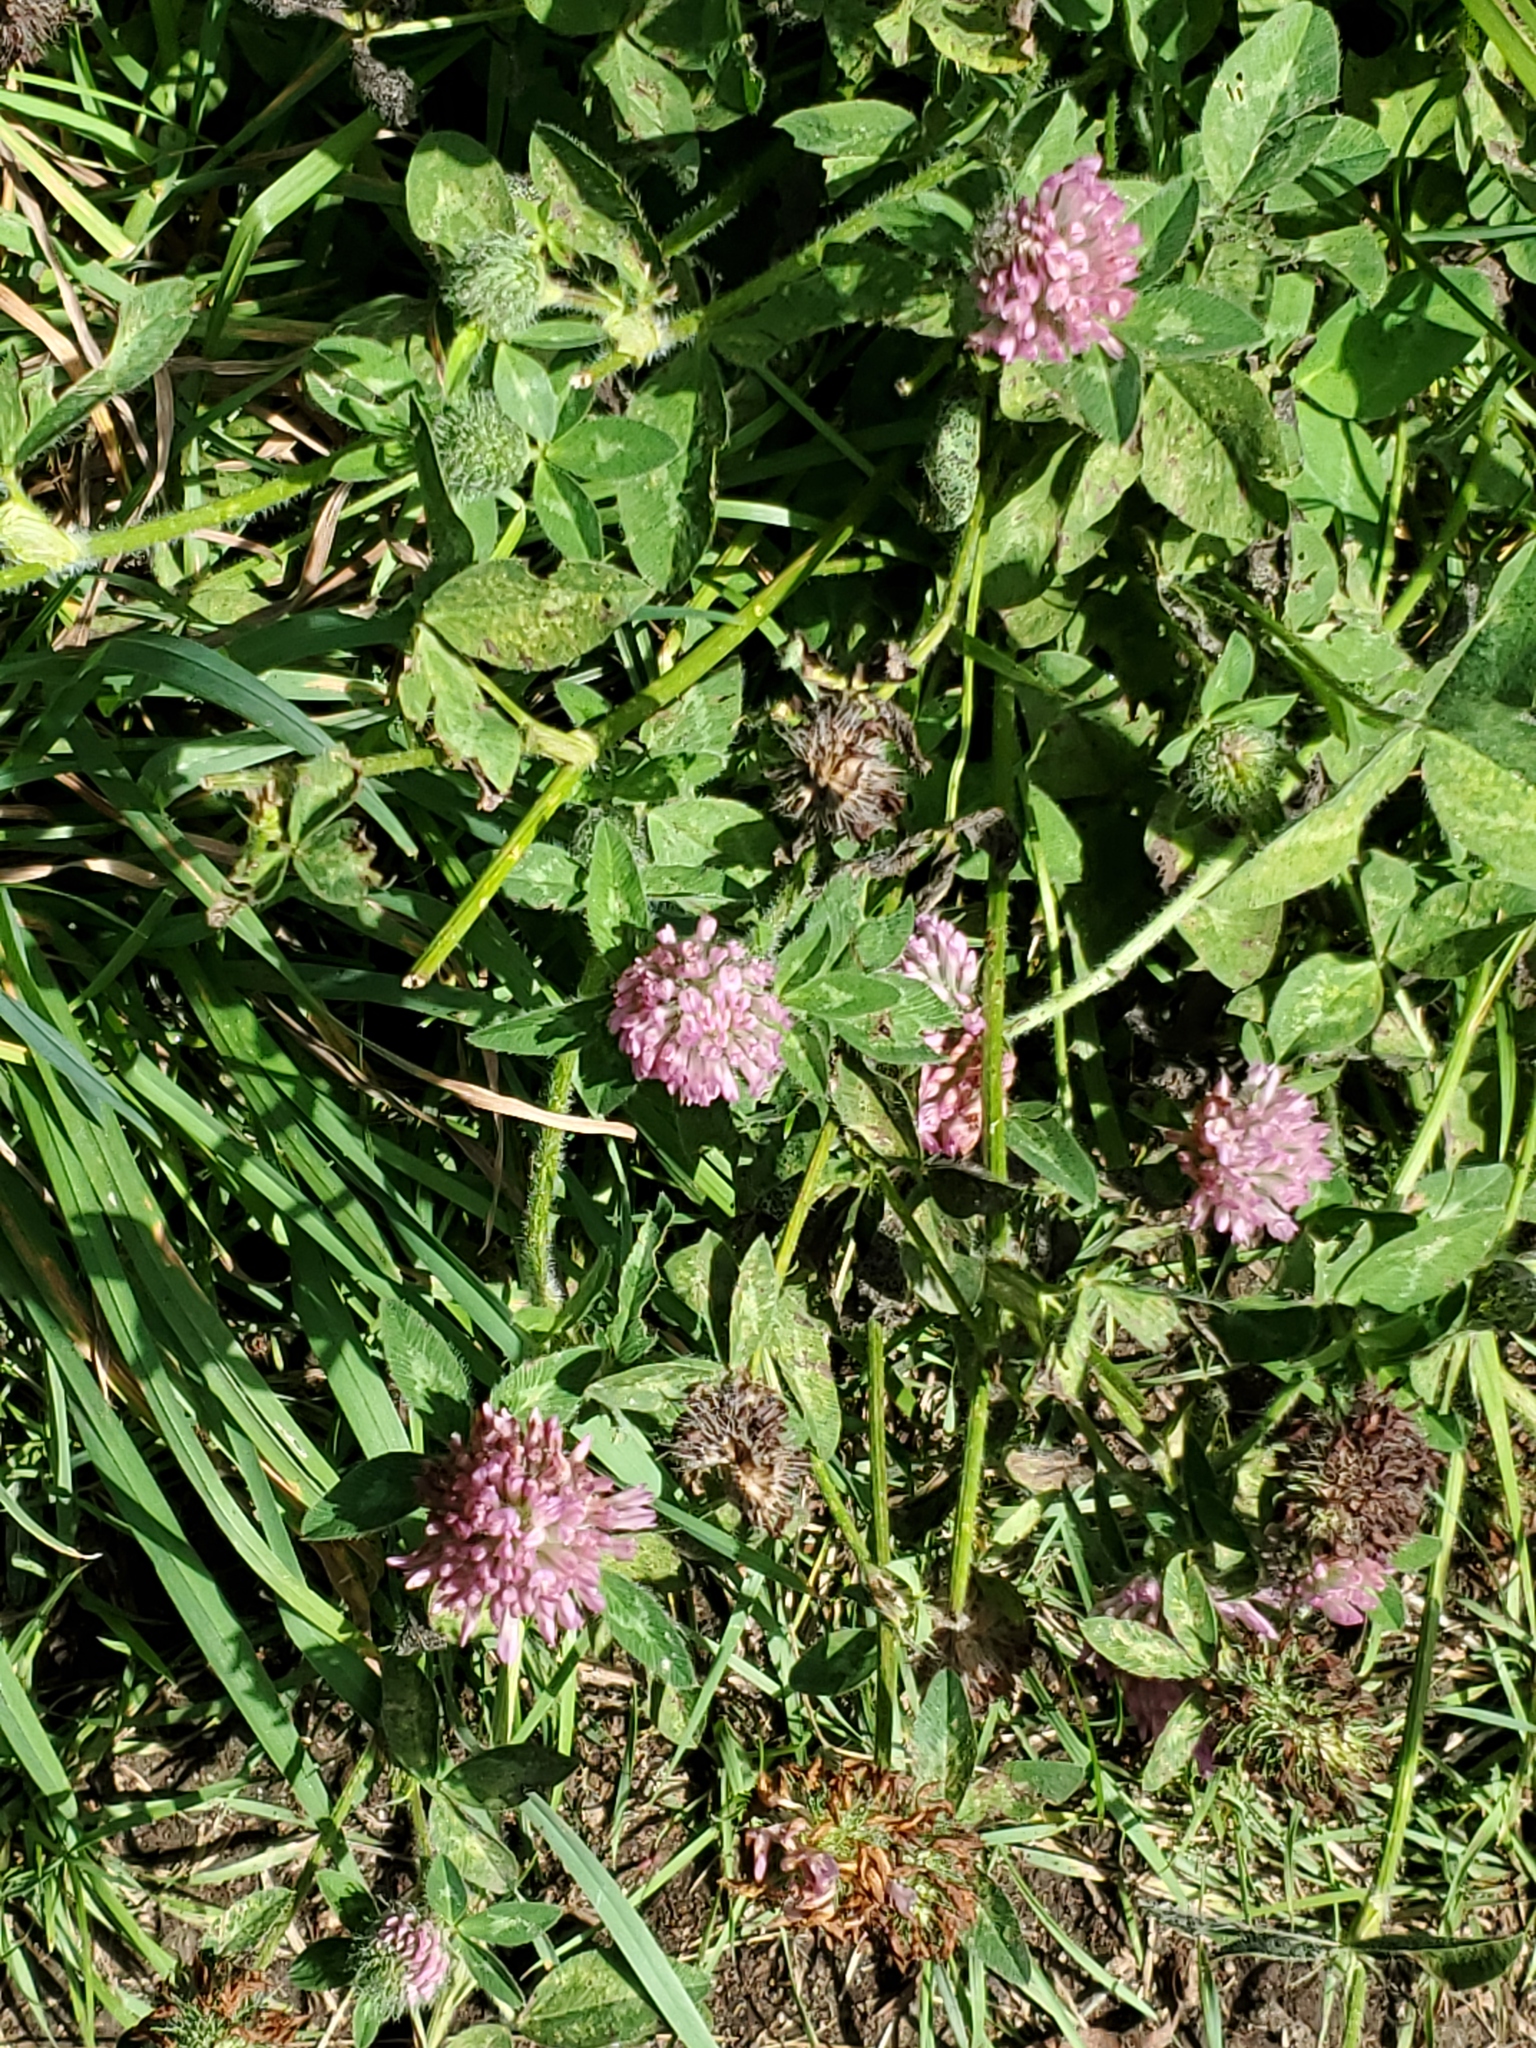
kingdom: Plantae
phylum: Tracheophyta
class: Magnoliopsida
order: Fabales
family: Fabaceae
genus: Trifolium
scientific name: Trifolium pratense
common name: Red clover
